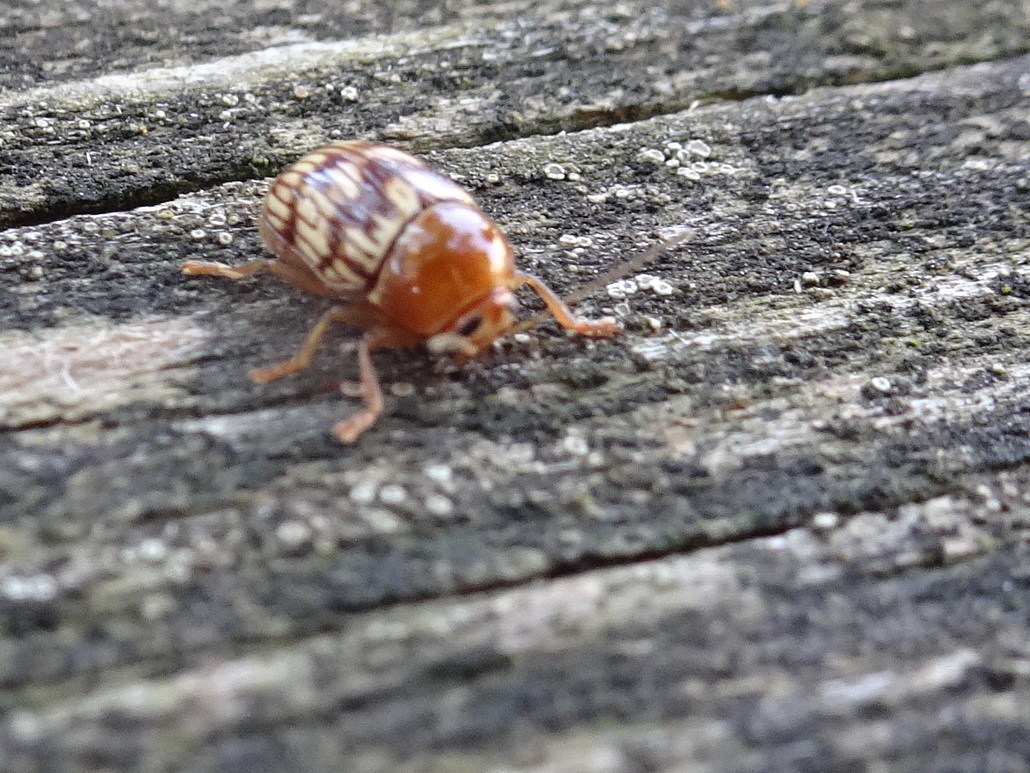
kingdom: Animalia
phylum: Arthropoda
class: Insecta
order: Coleoptera
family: Chrysomelidae
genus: Cryptocephalus
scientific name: Cryptocephalus fulguratus
